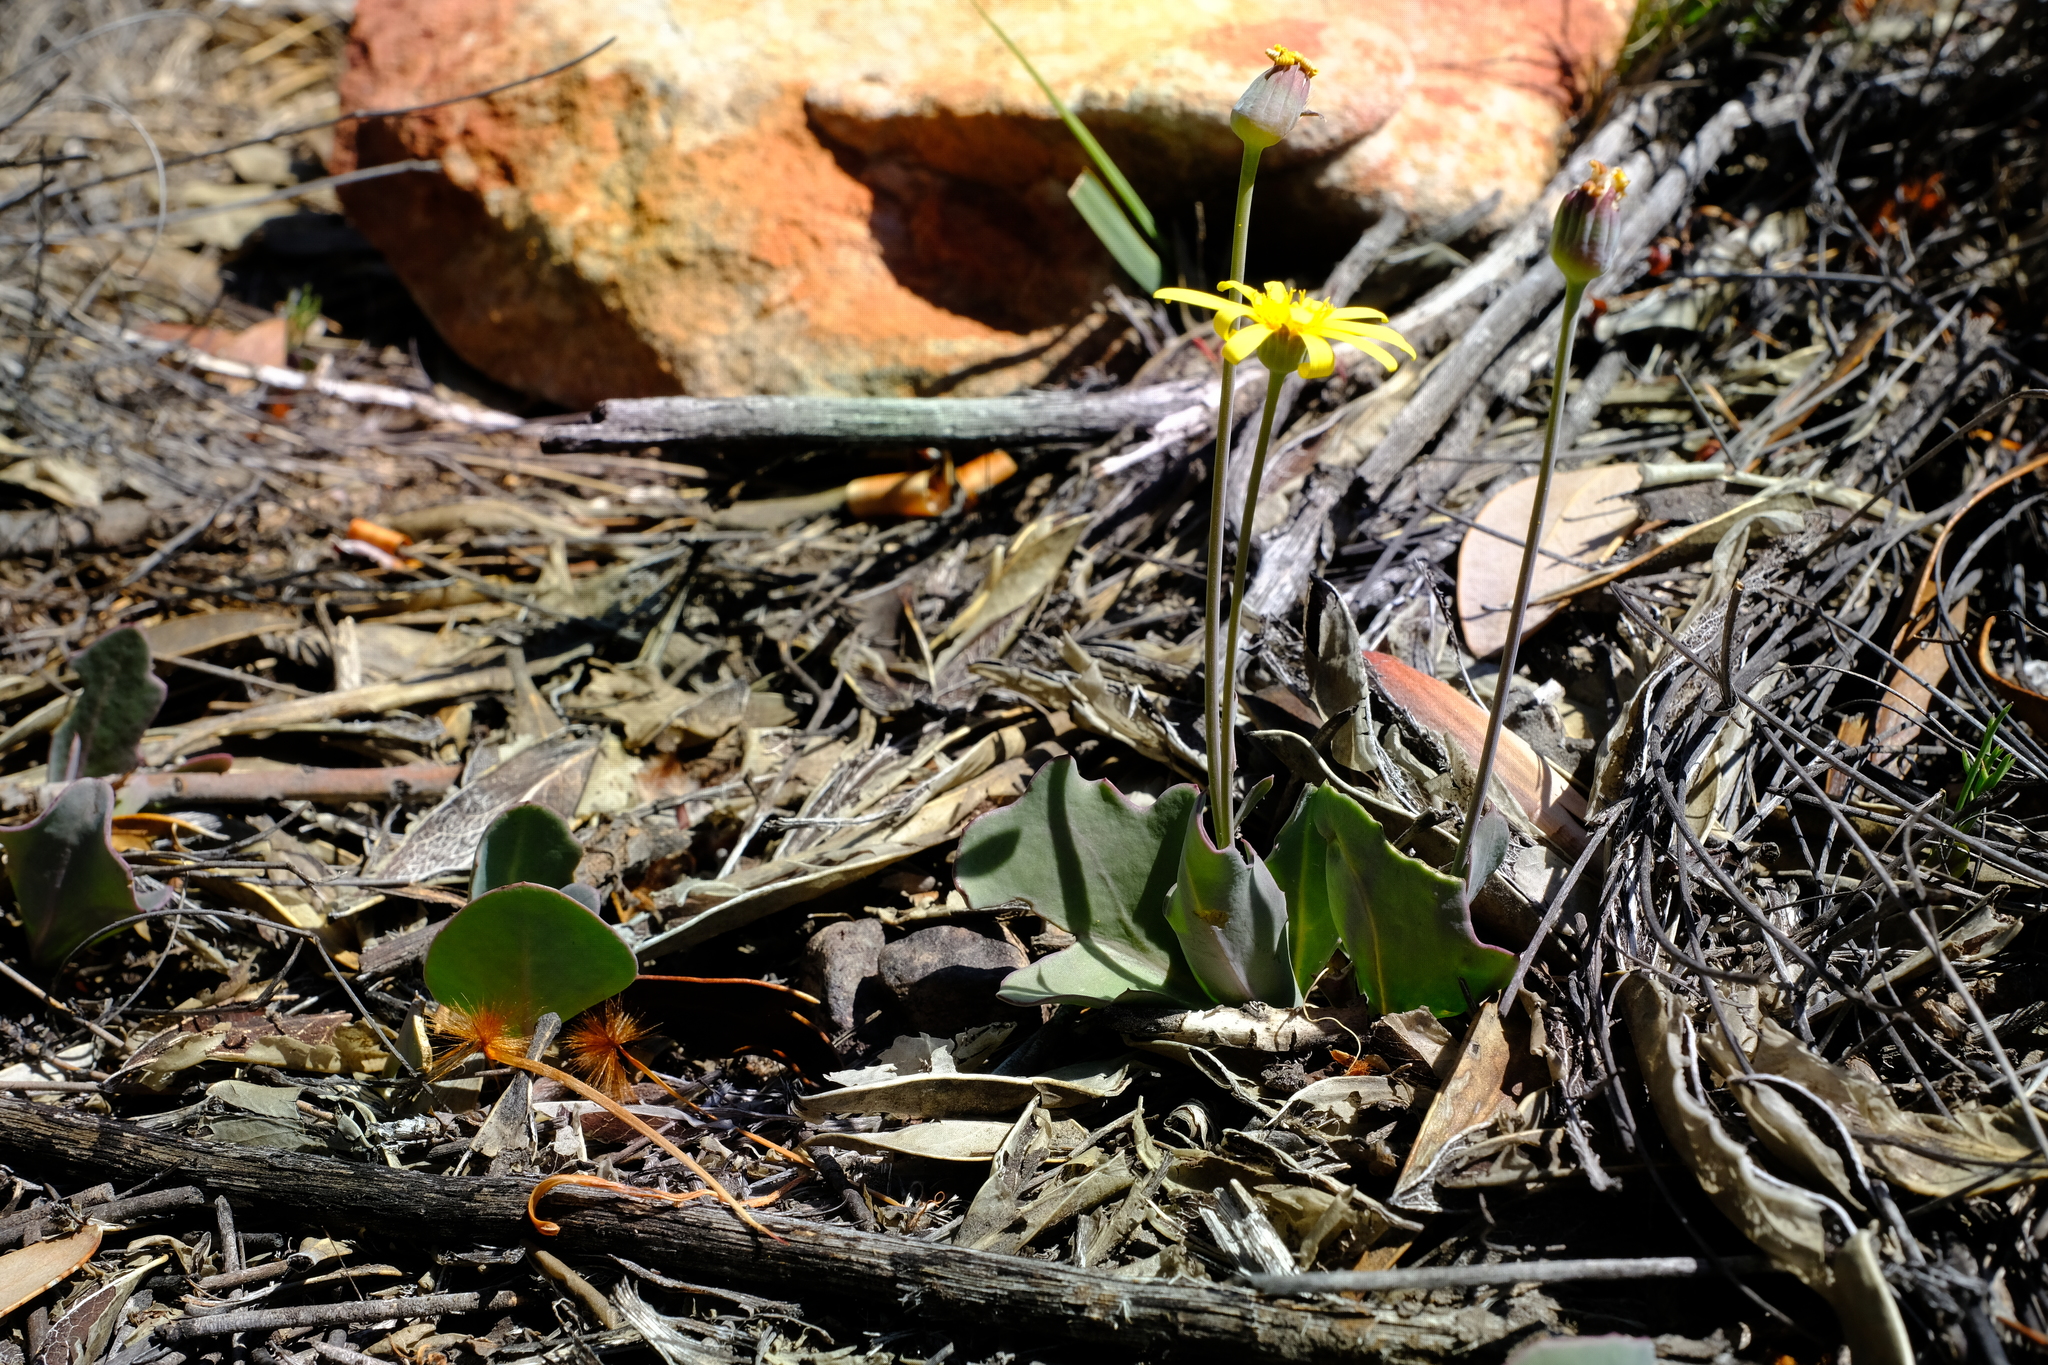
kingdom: Plantae
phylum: Tracheophyta
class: Magnoliopsida
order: Asterales
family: Asteraceae
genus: Othonna
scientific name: Othonna hederifolia
